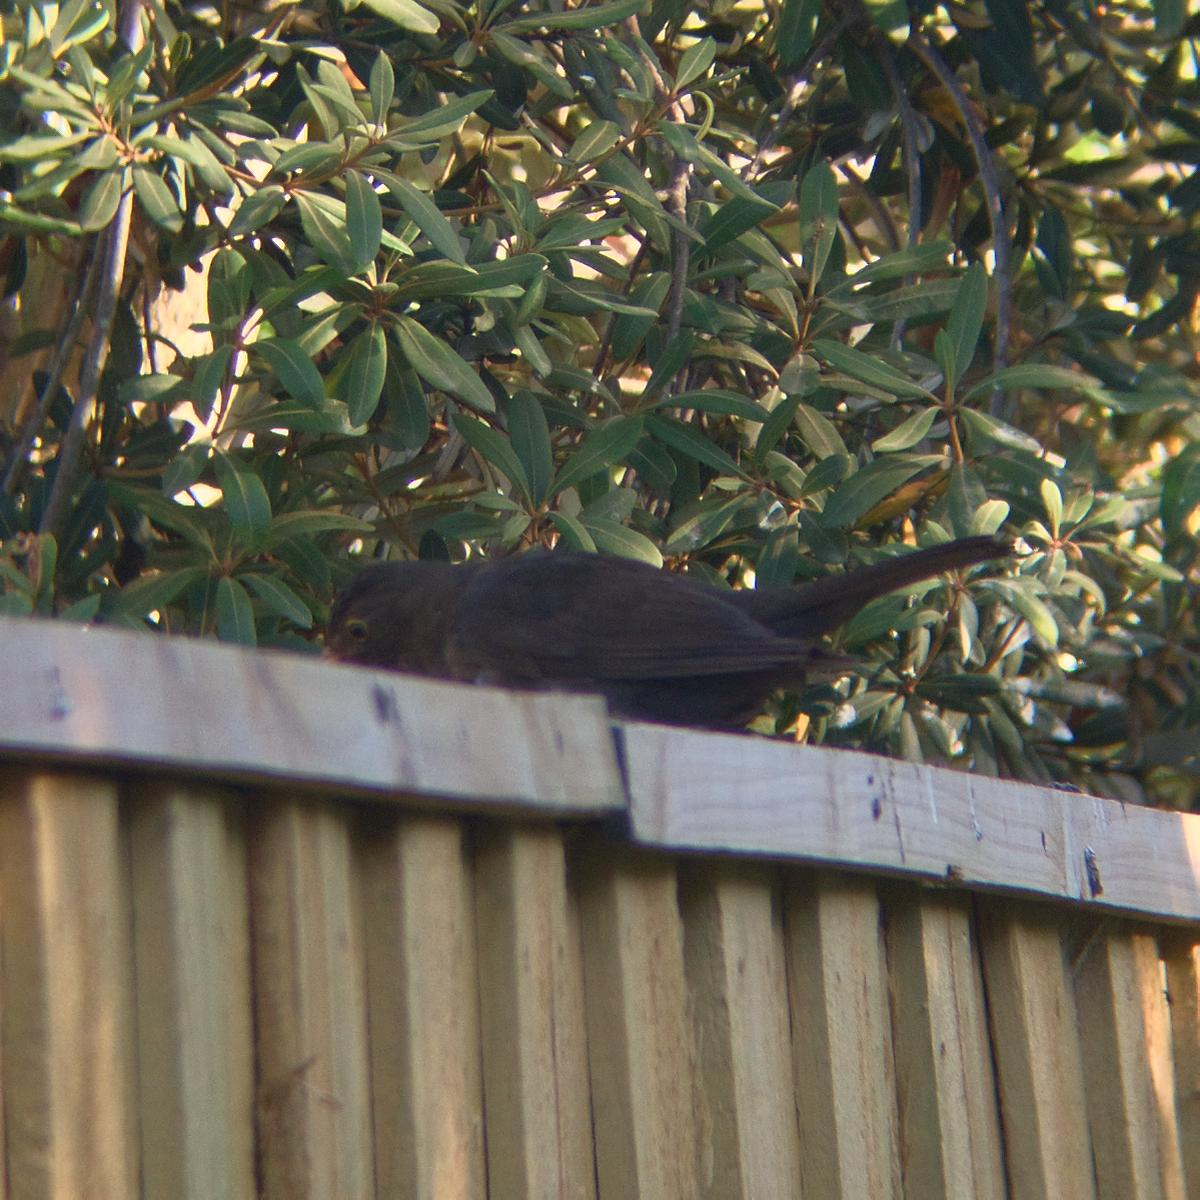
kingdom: Animalia
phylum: Chordata
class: Aves
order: Passeriformes
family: Turdidae
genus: Turdus
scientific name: Turdus merula
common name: Common blackbird
